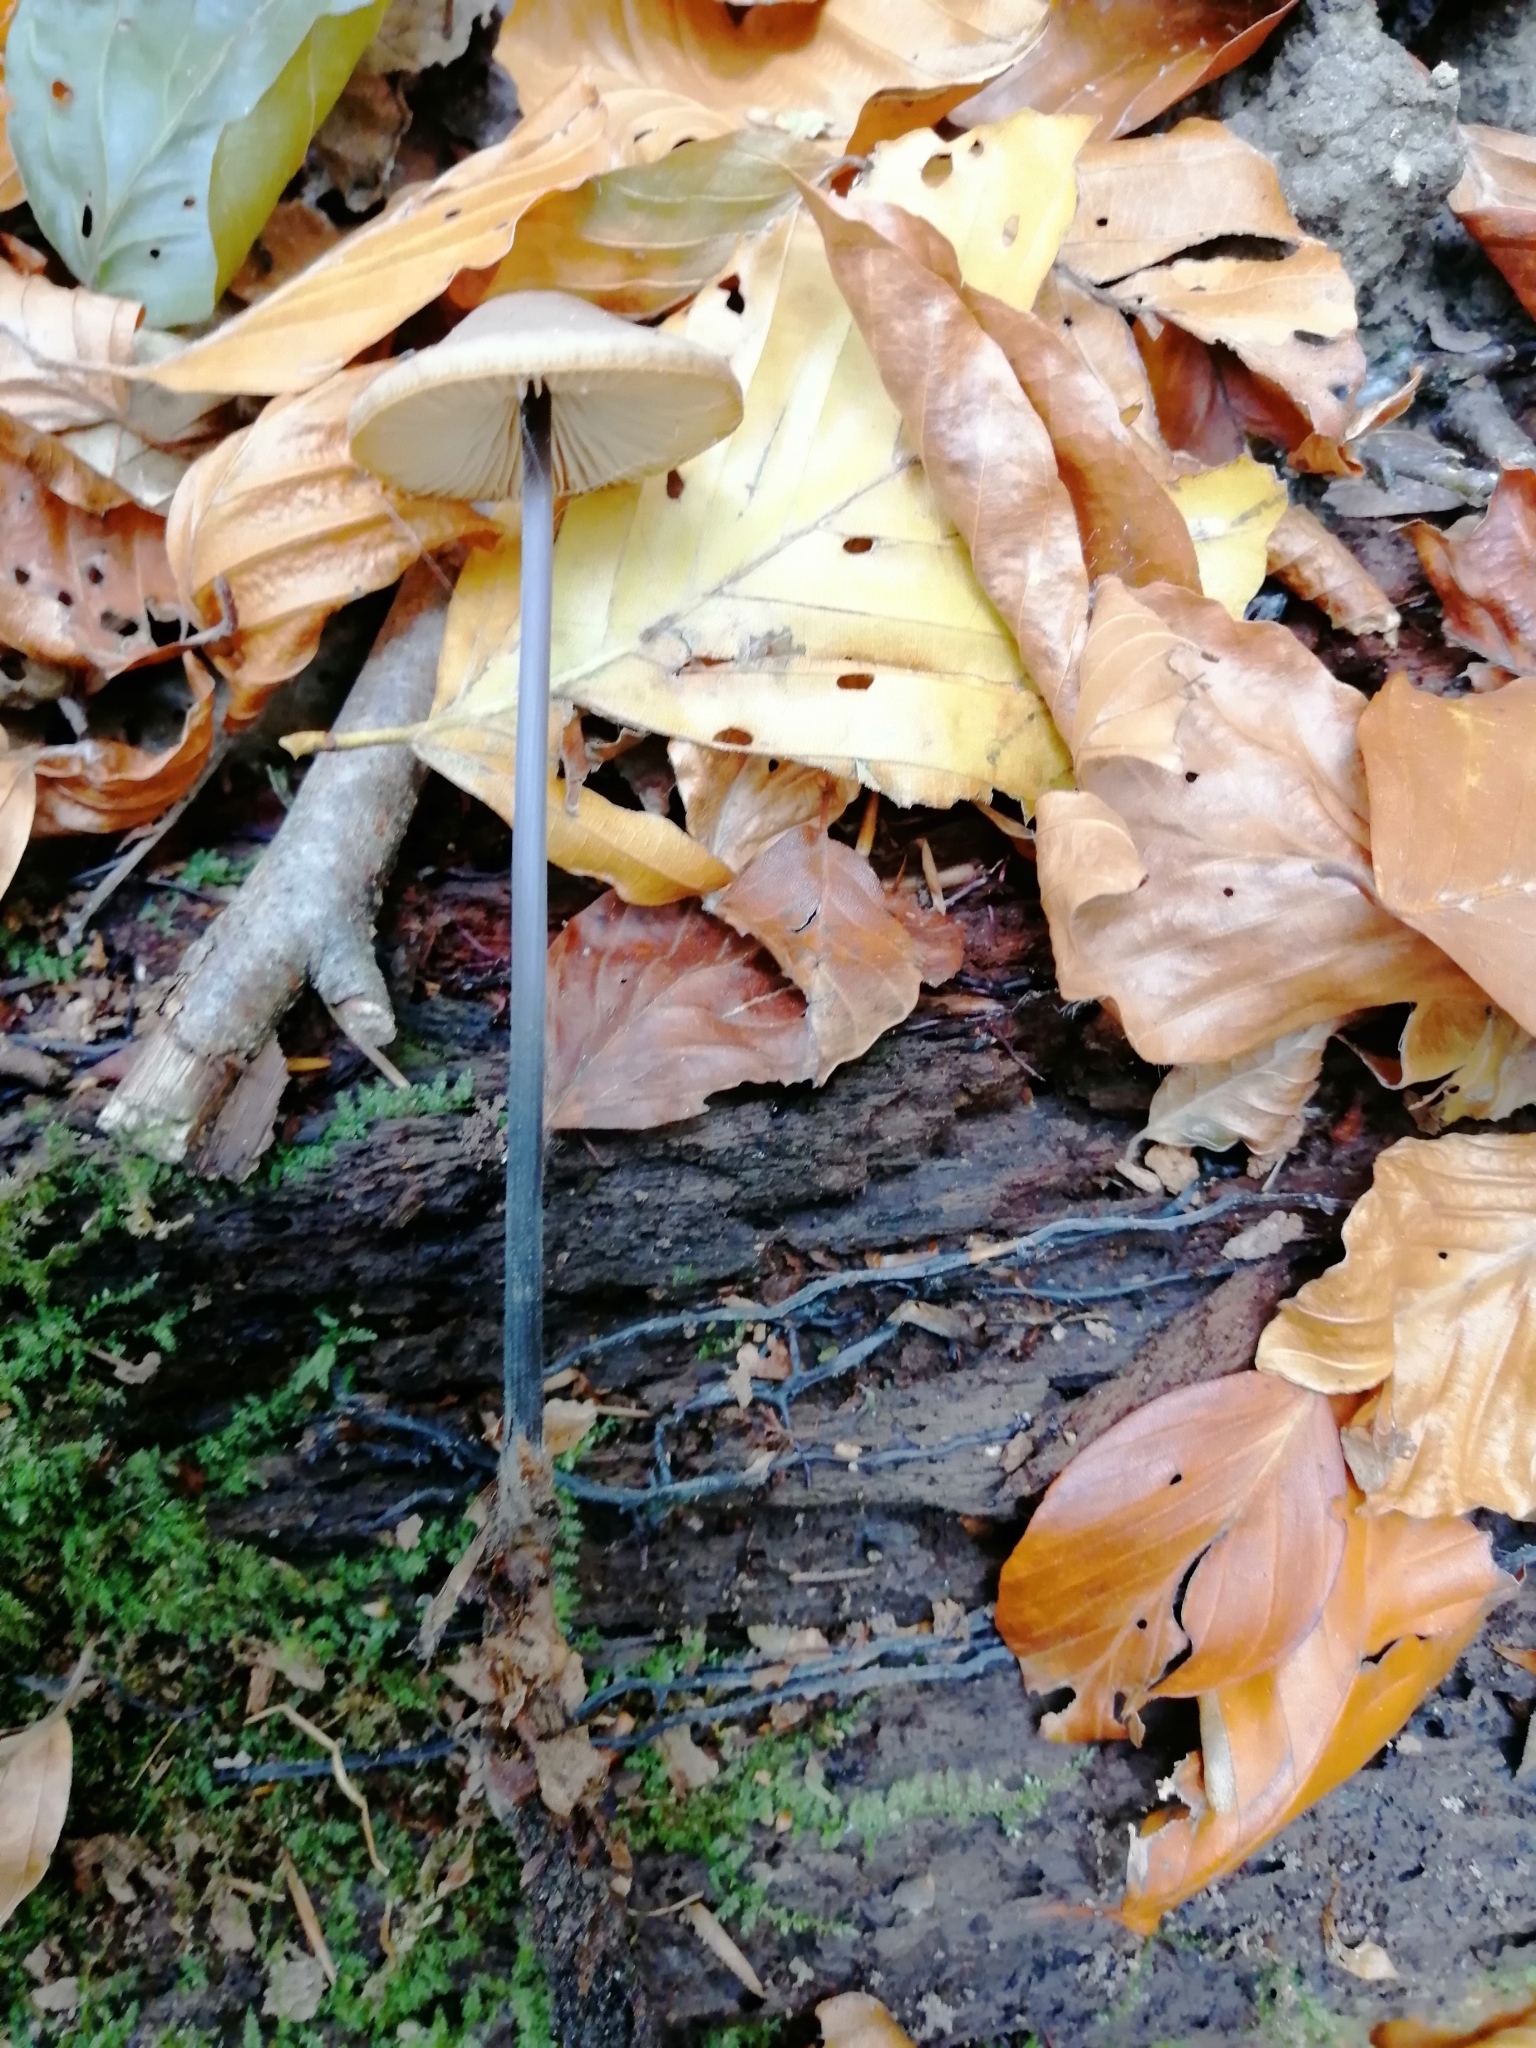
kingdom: Fungi
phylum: Basidiomycota
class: Agaricomycetes
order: Agaricales
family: Omphalotaceae
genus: Mycetinis
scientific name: Mycetinis alliaceus
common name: Garlic parachute
